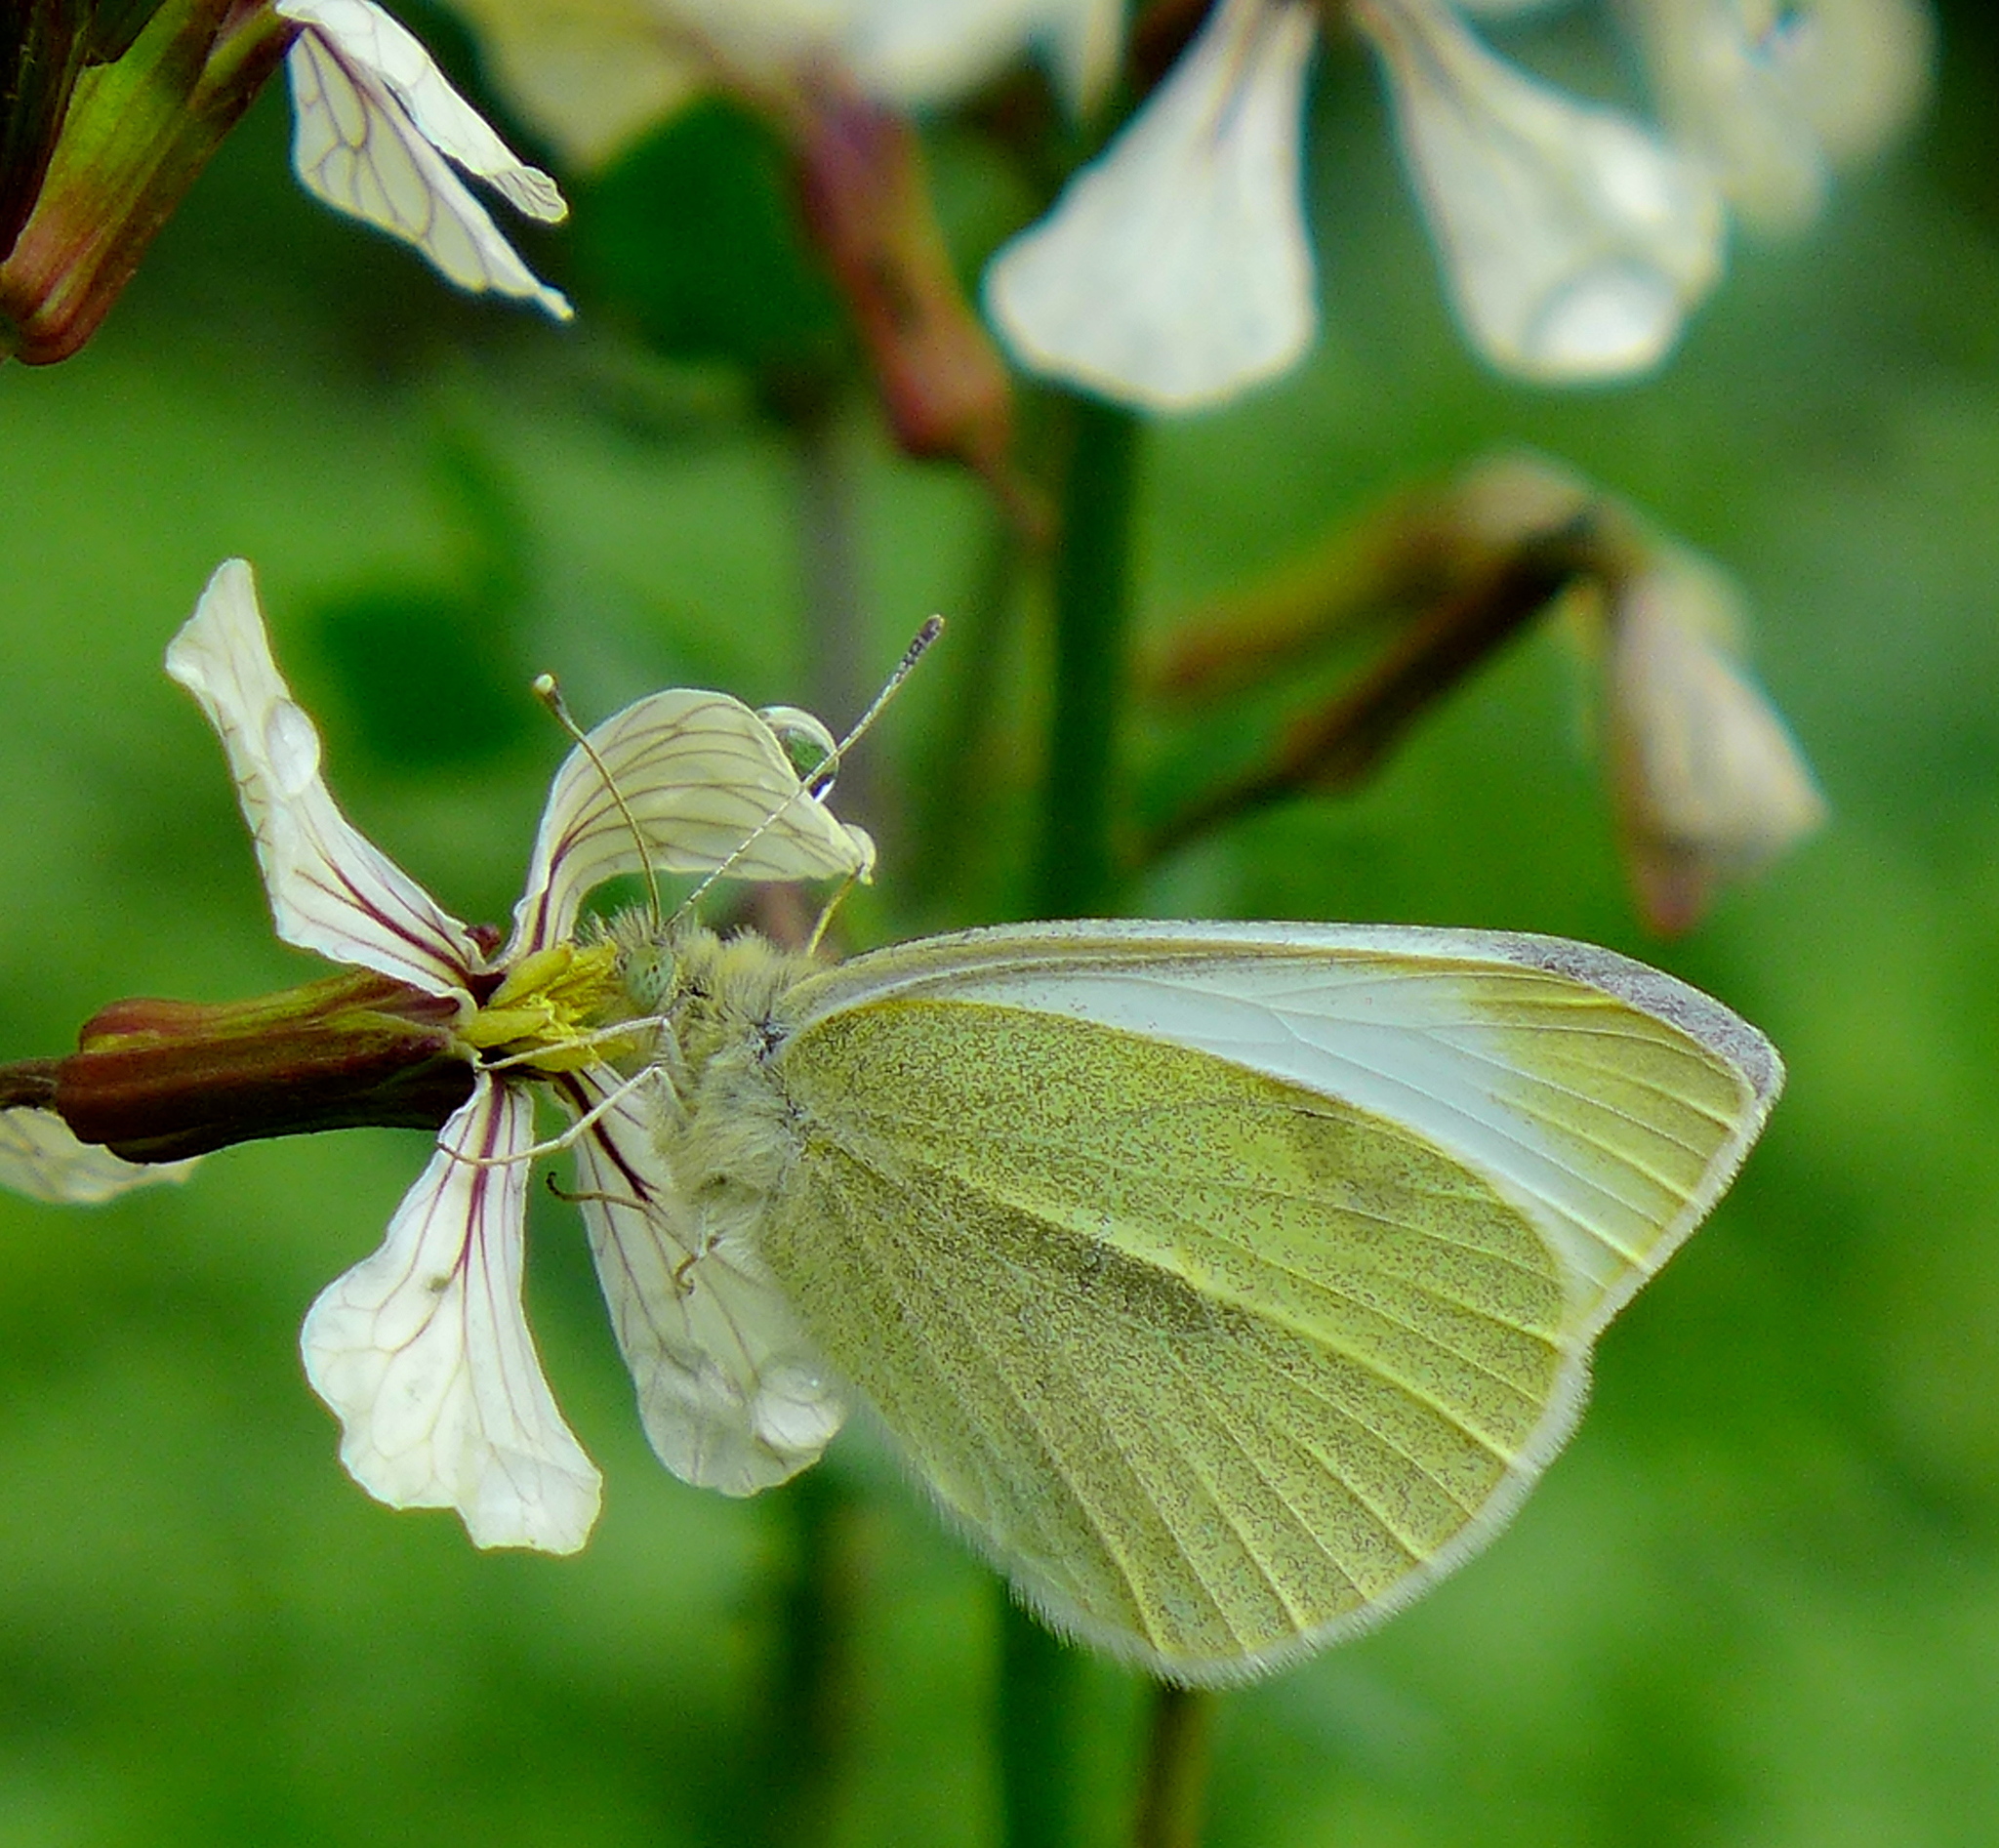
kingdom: Animalia
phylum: Arthropoda
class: Insecta
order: Lepidoptera
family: Pieridae
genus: Pieris
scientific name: Pieris rapae
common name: Small white
